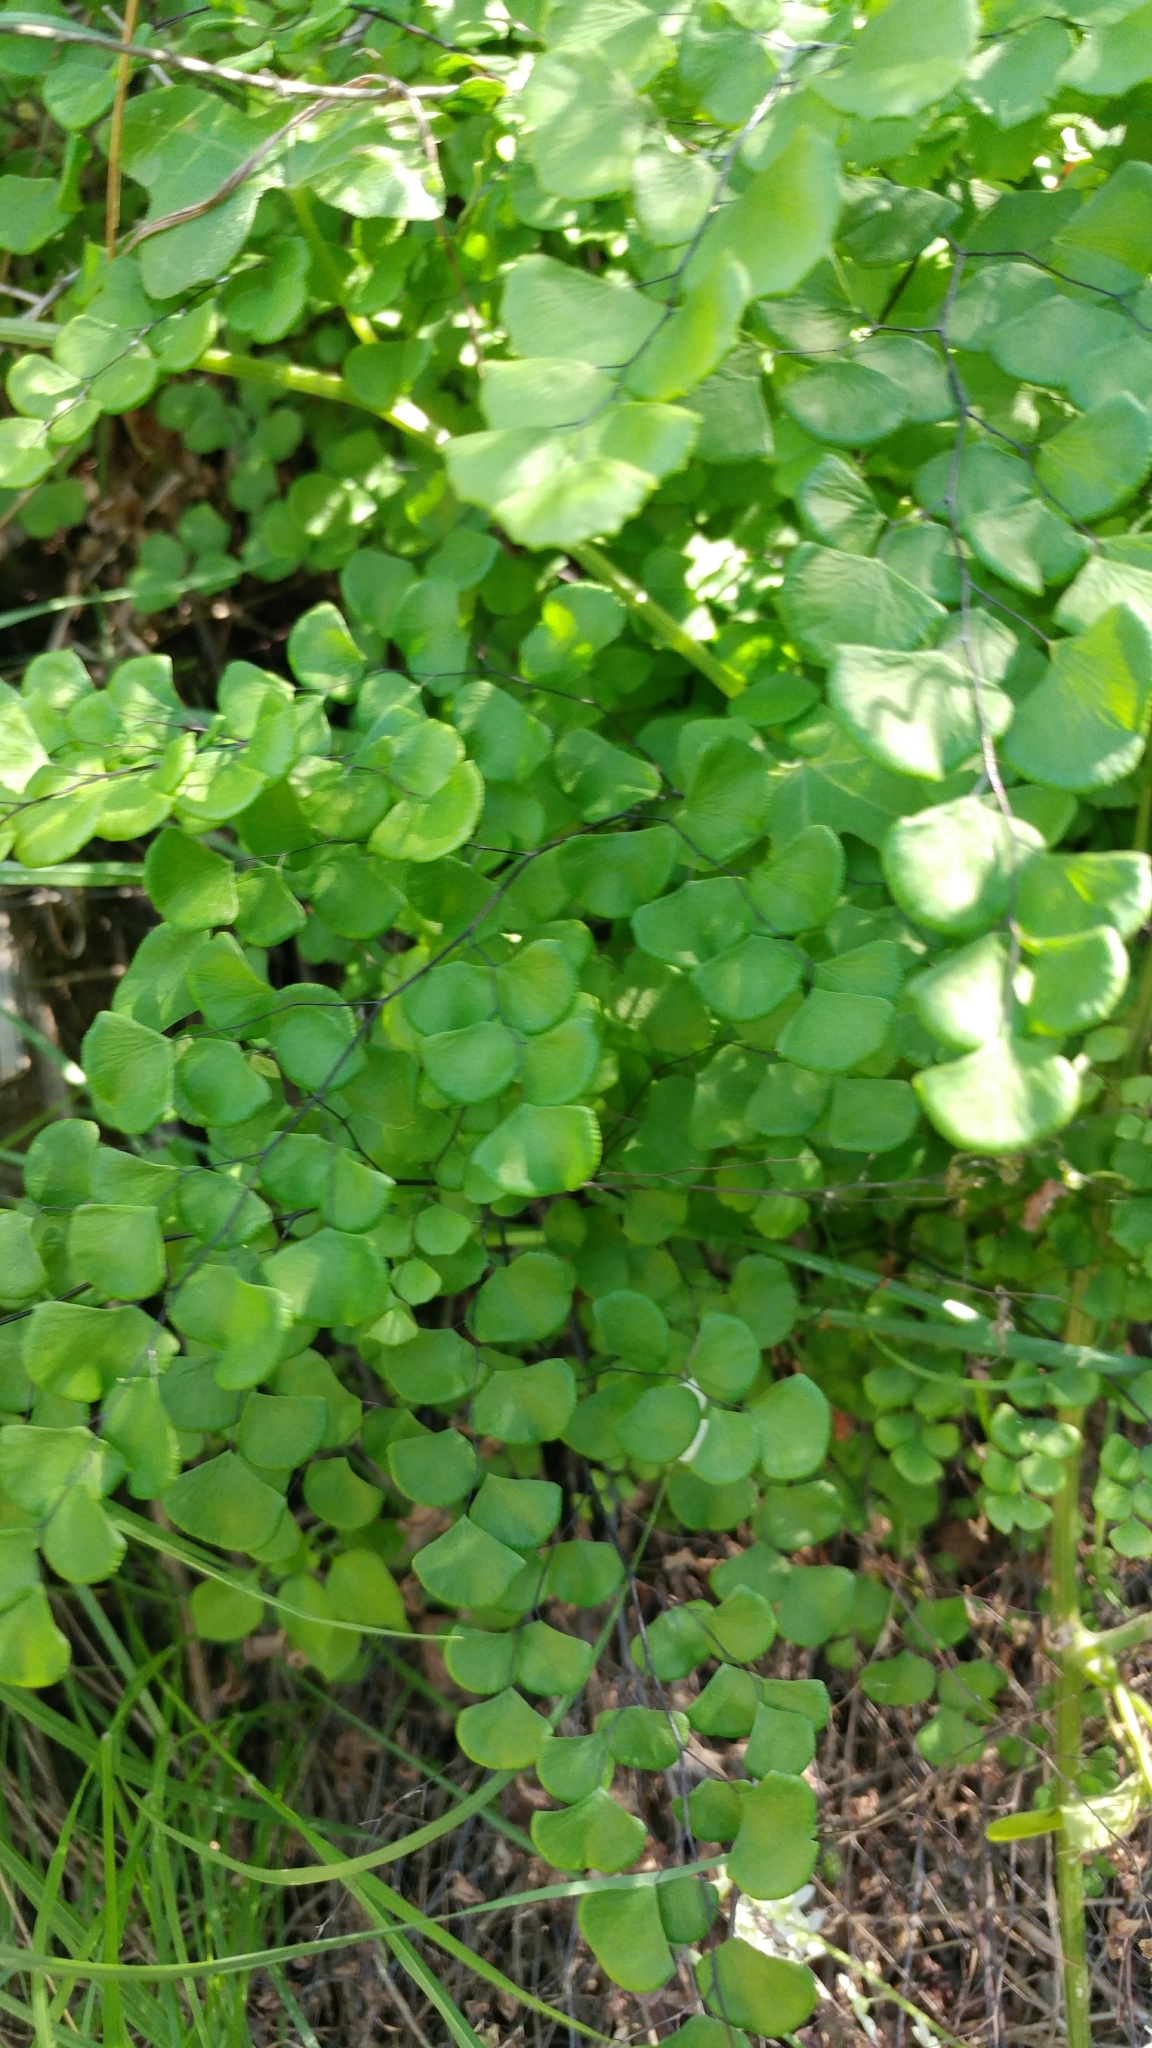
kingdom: Plantae
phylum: Tracheophyta
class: Polypodiopsida
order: Polypodiales
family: Pteridaceae
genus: Adiantum
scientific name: Adiantum jordanii
